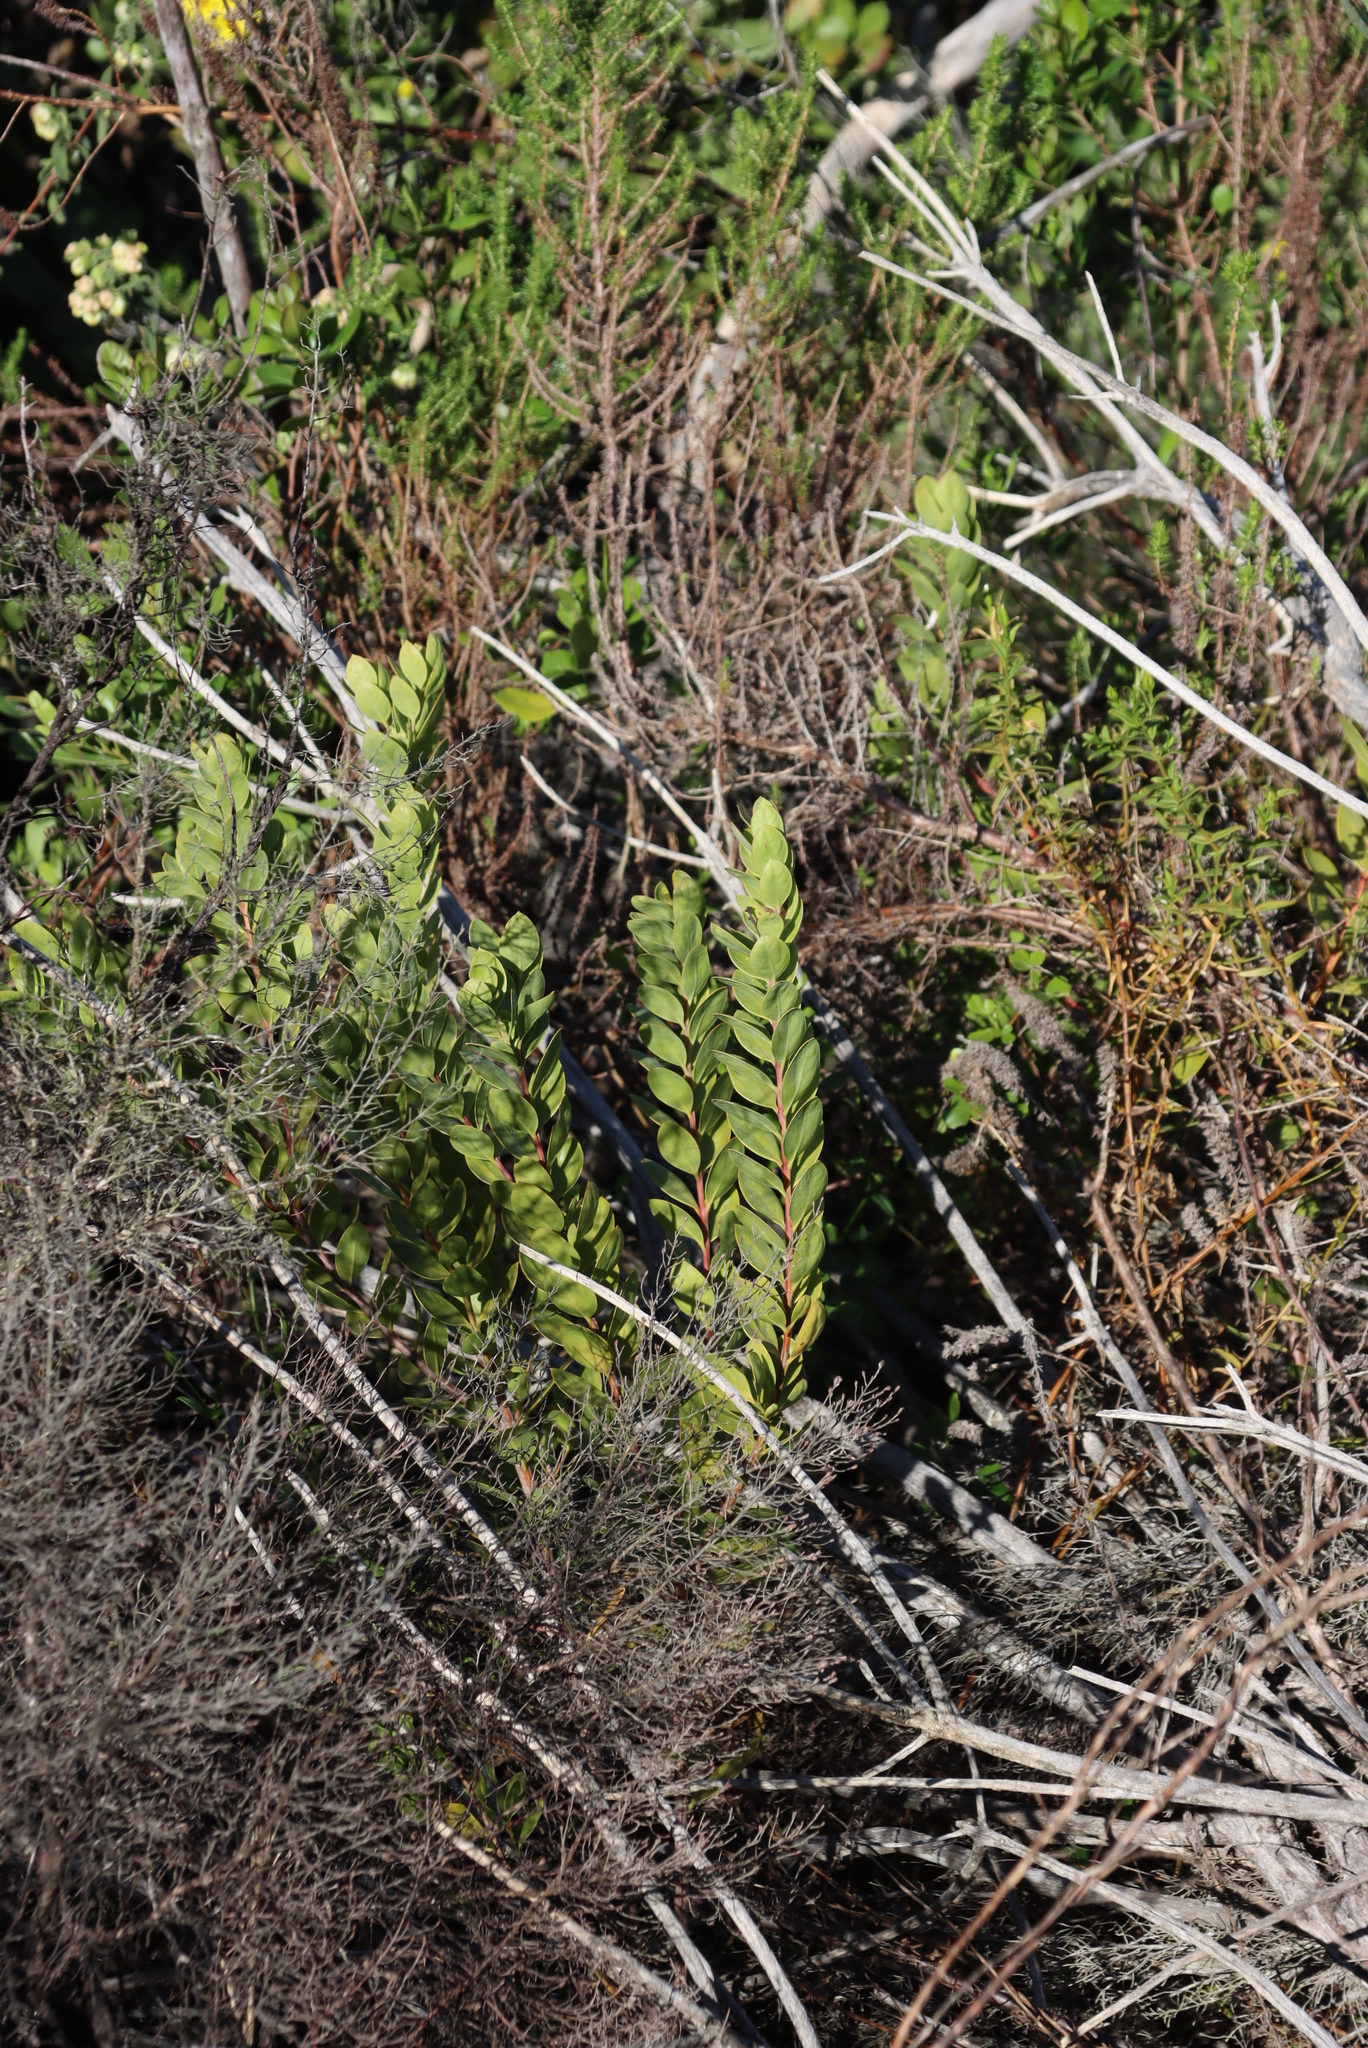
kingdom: Plantae
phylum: Tracheophyta
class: Magnoliopsida
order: Santalales
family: Santalaceae
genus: Osyris
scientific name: Osyris compressa
